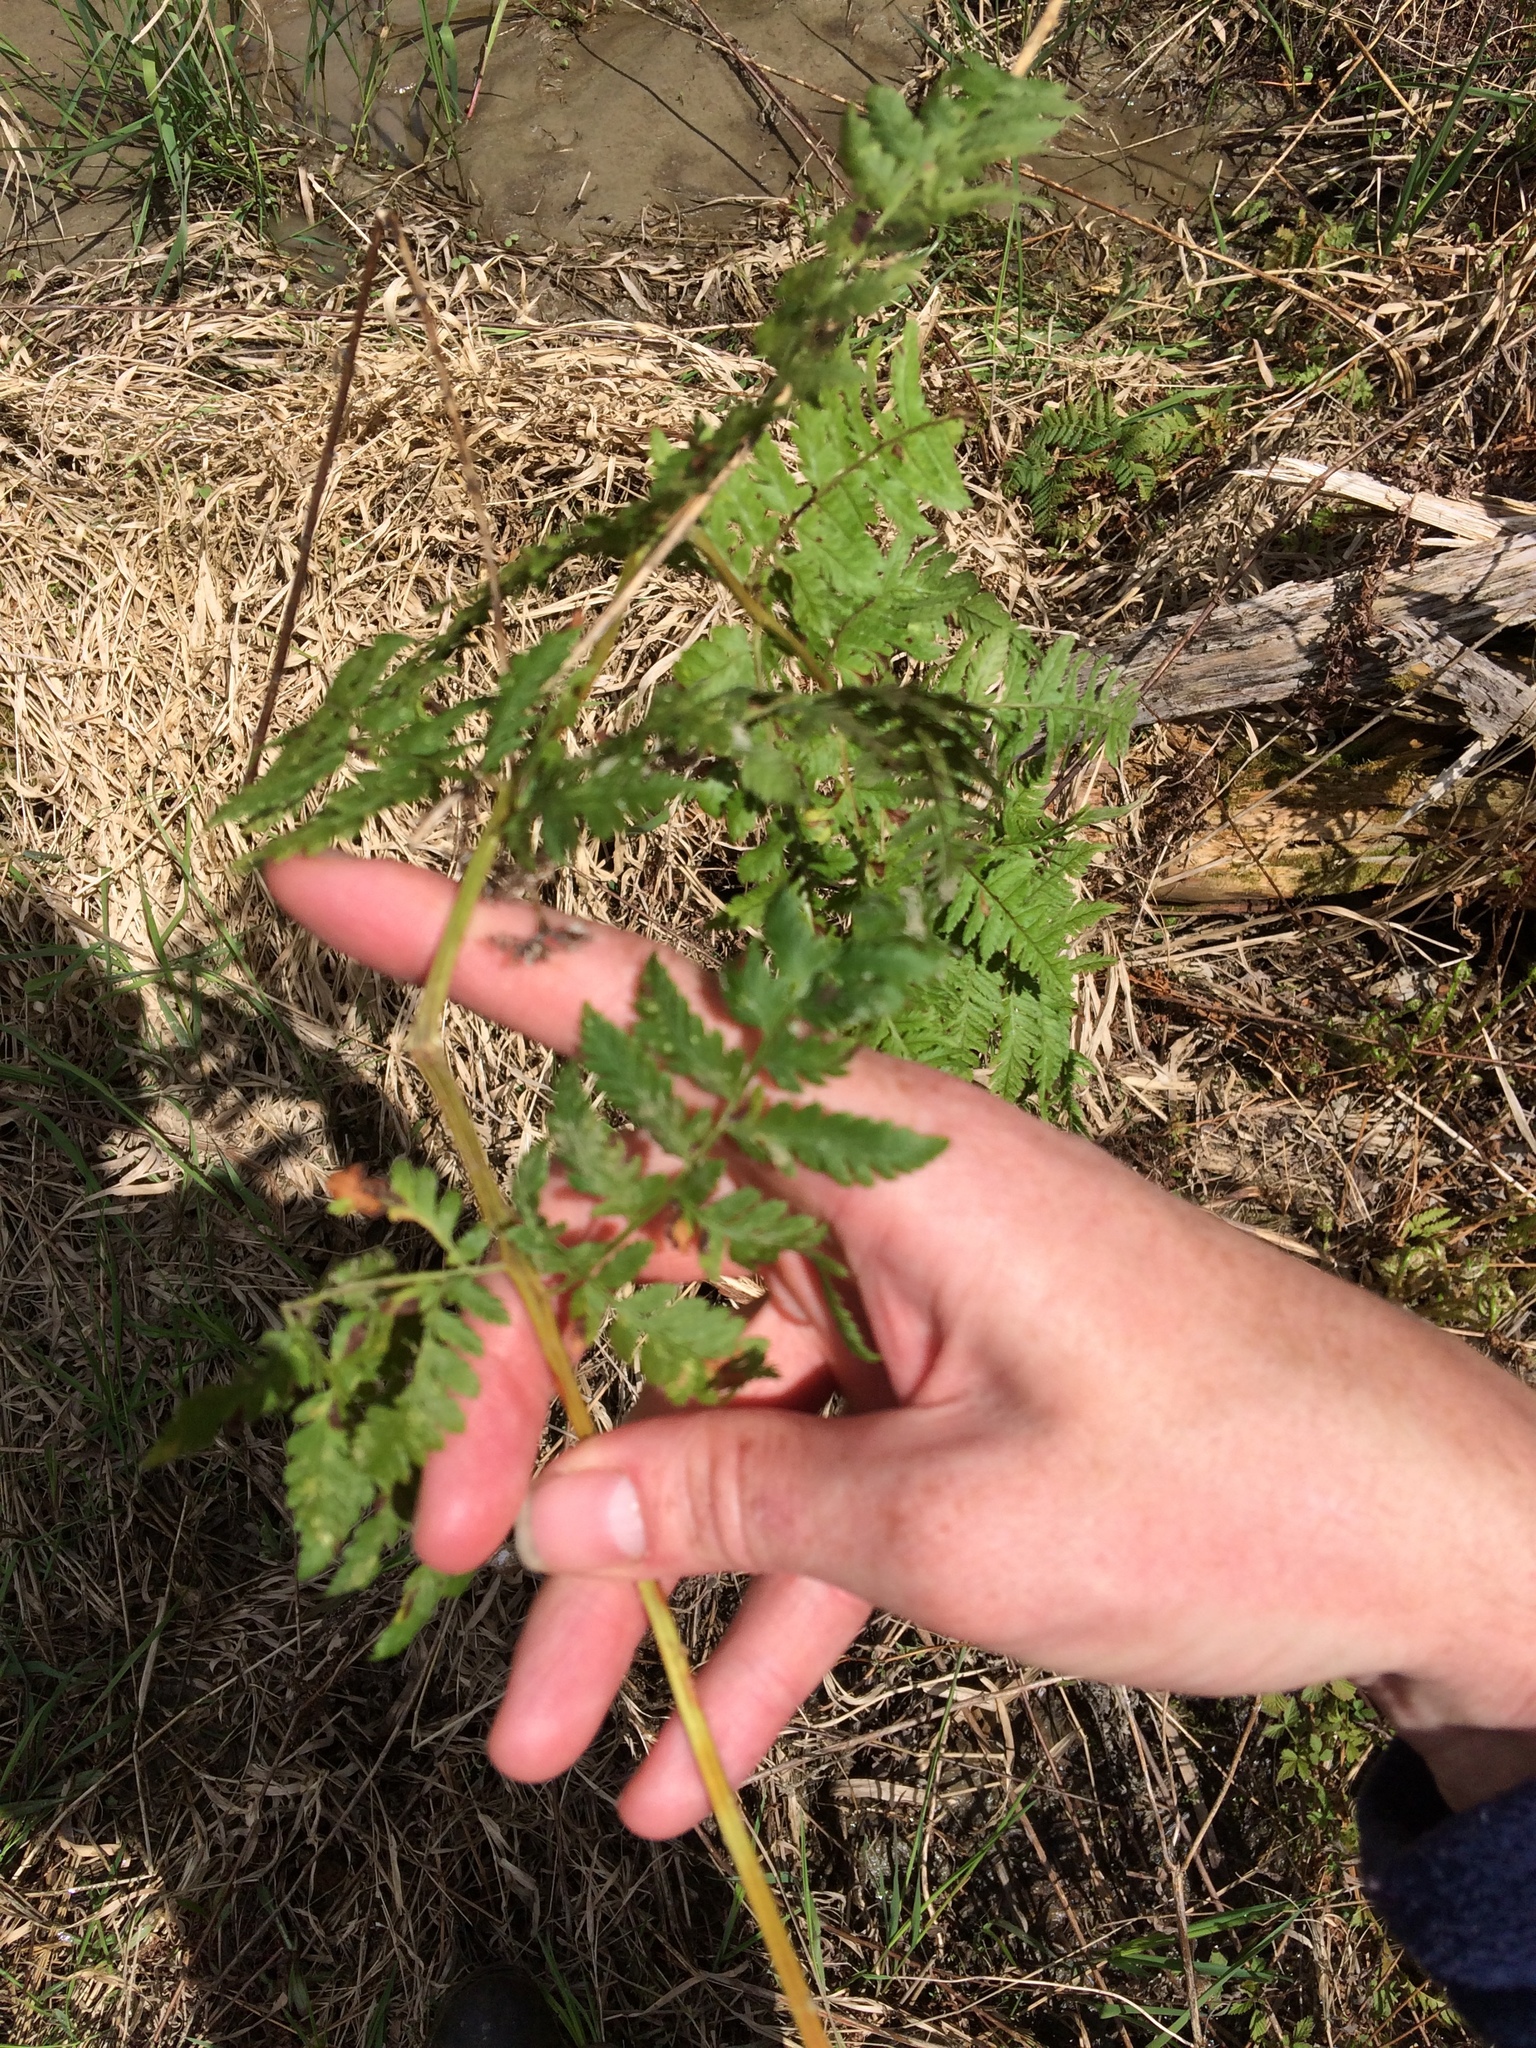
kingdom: Plantae
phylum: Tracheophyta
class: Polypodiopsida
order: Polypodiales
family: Dryopteridaceae
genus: Dryopteris
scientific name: Dryopteris intermedia
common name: Evergreen wood fern
